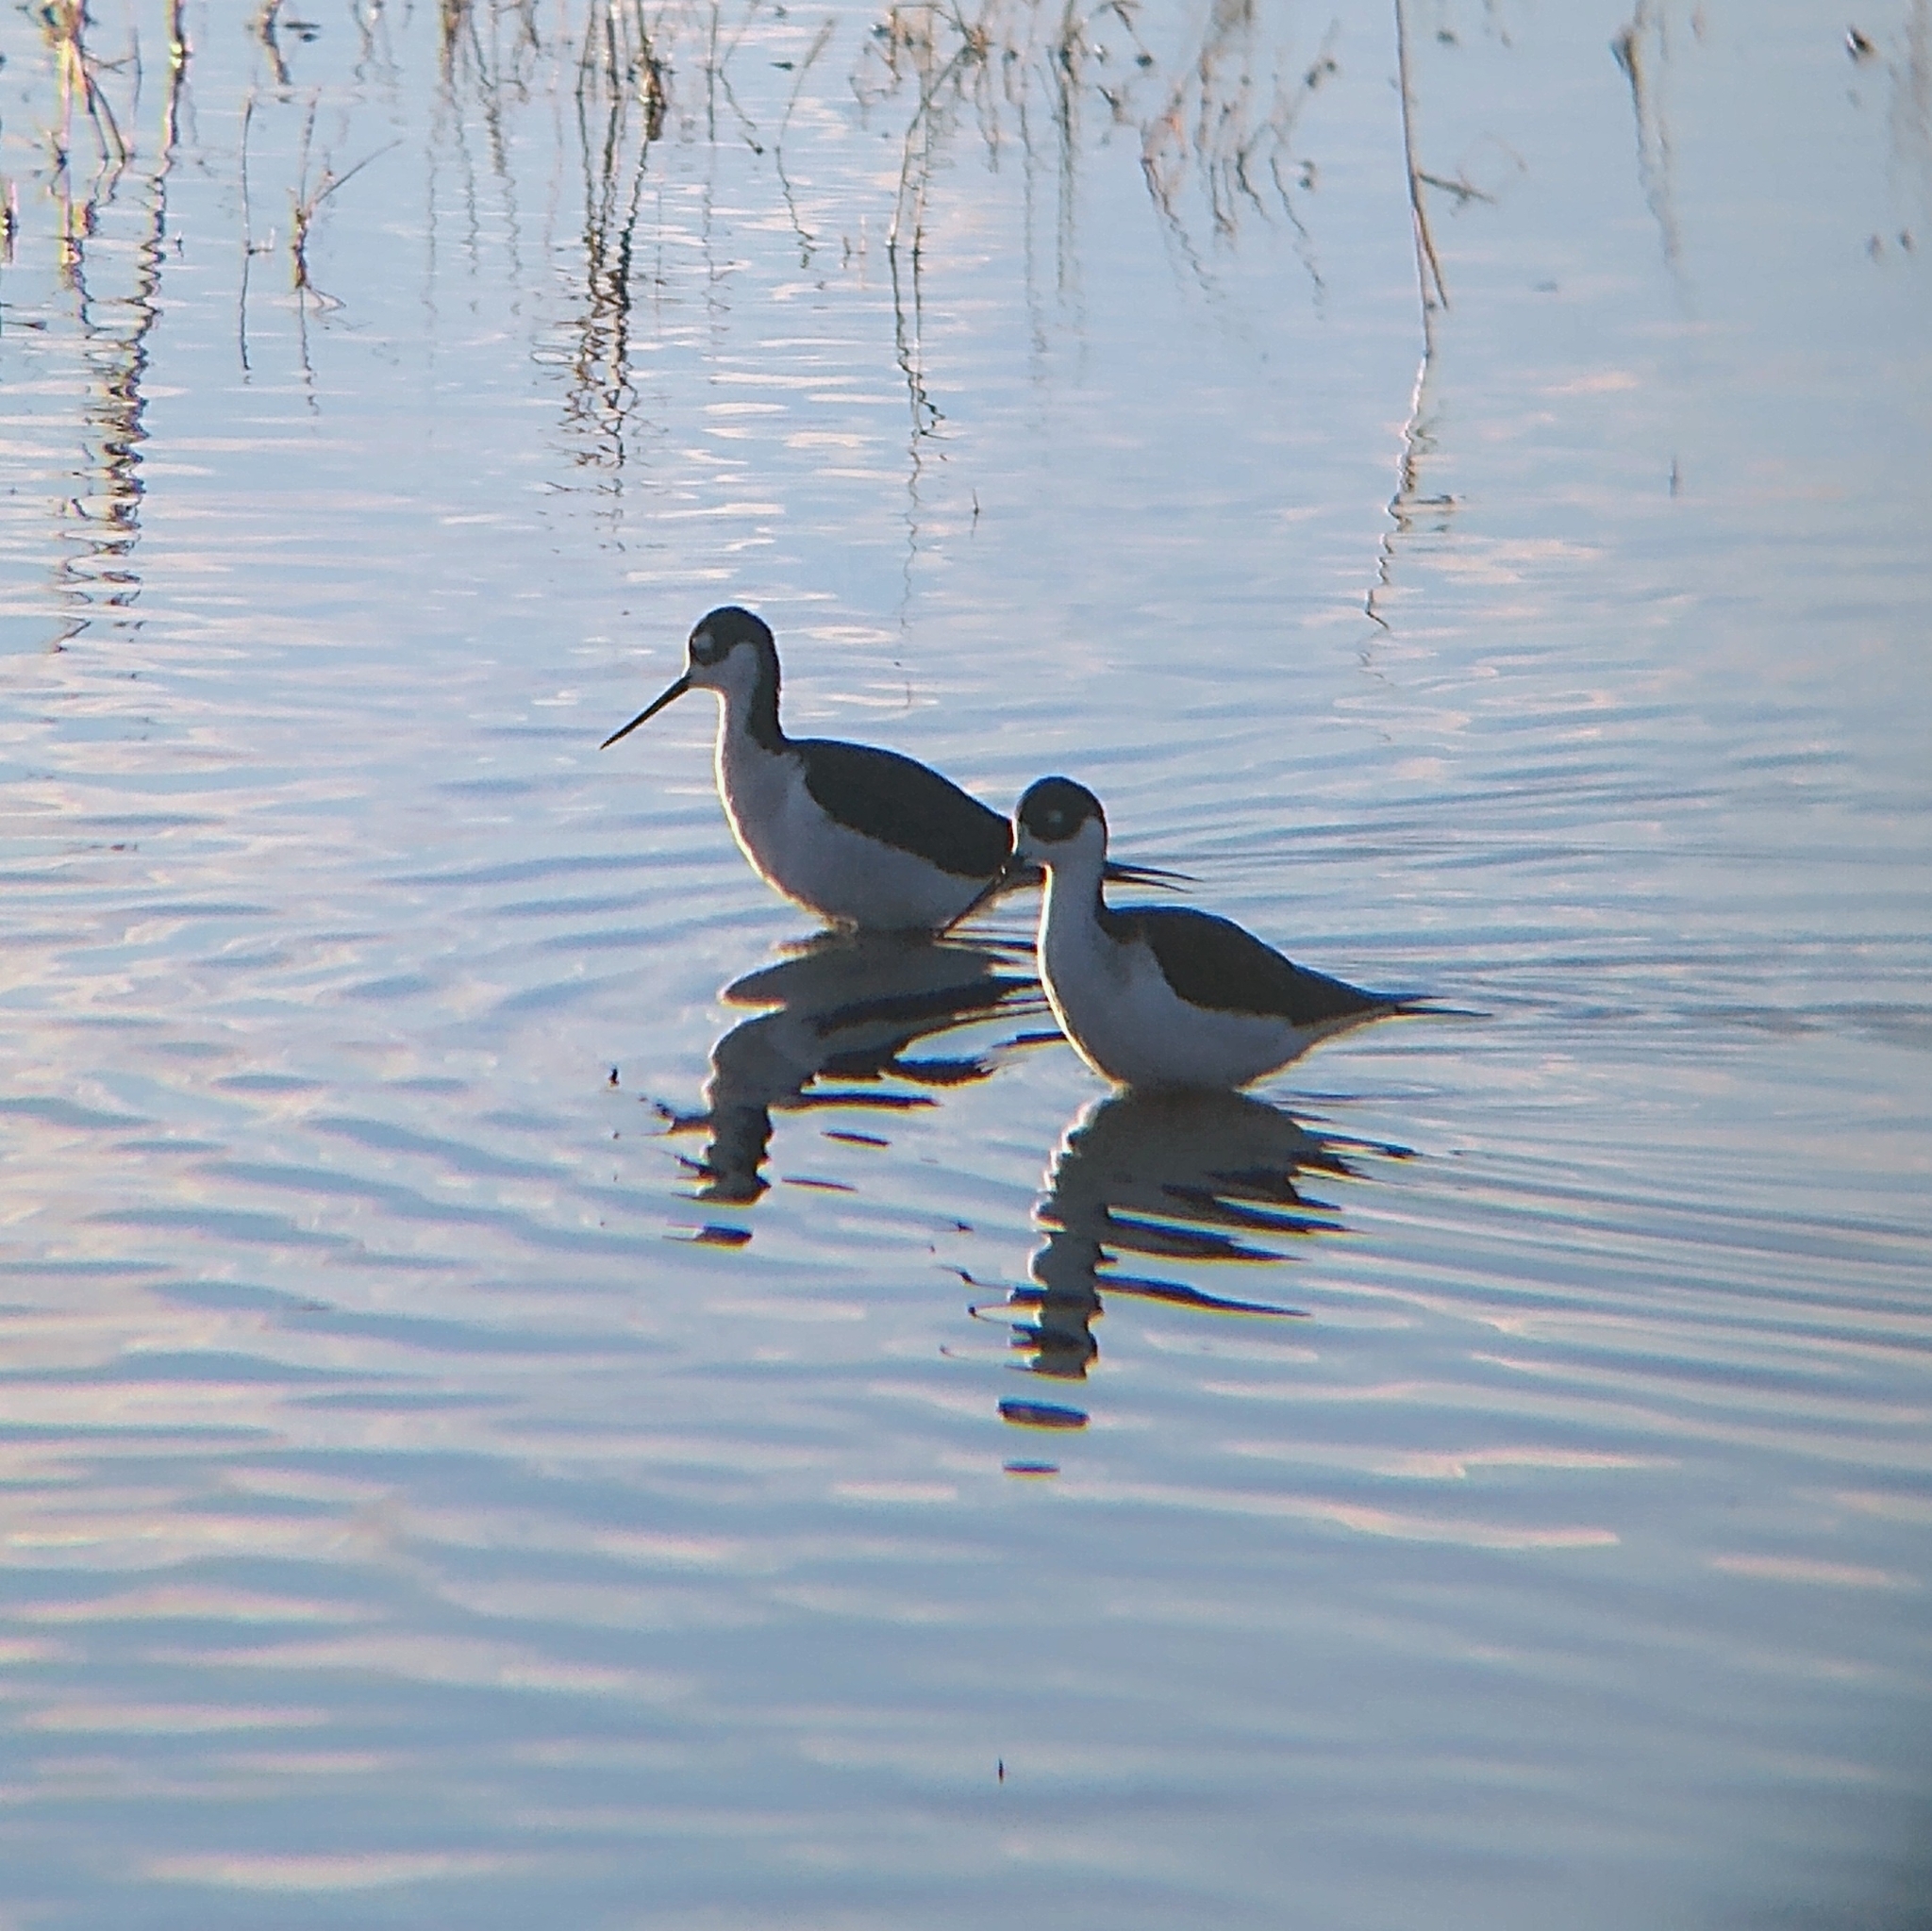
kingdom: Animalia
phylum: Chordata
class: Aves
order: Charadriiformes
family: Recurvirostridae
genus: Himantopus
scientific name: Himantopus mexicanus
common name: Black-necked stilt
